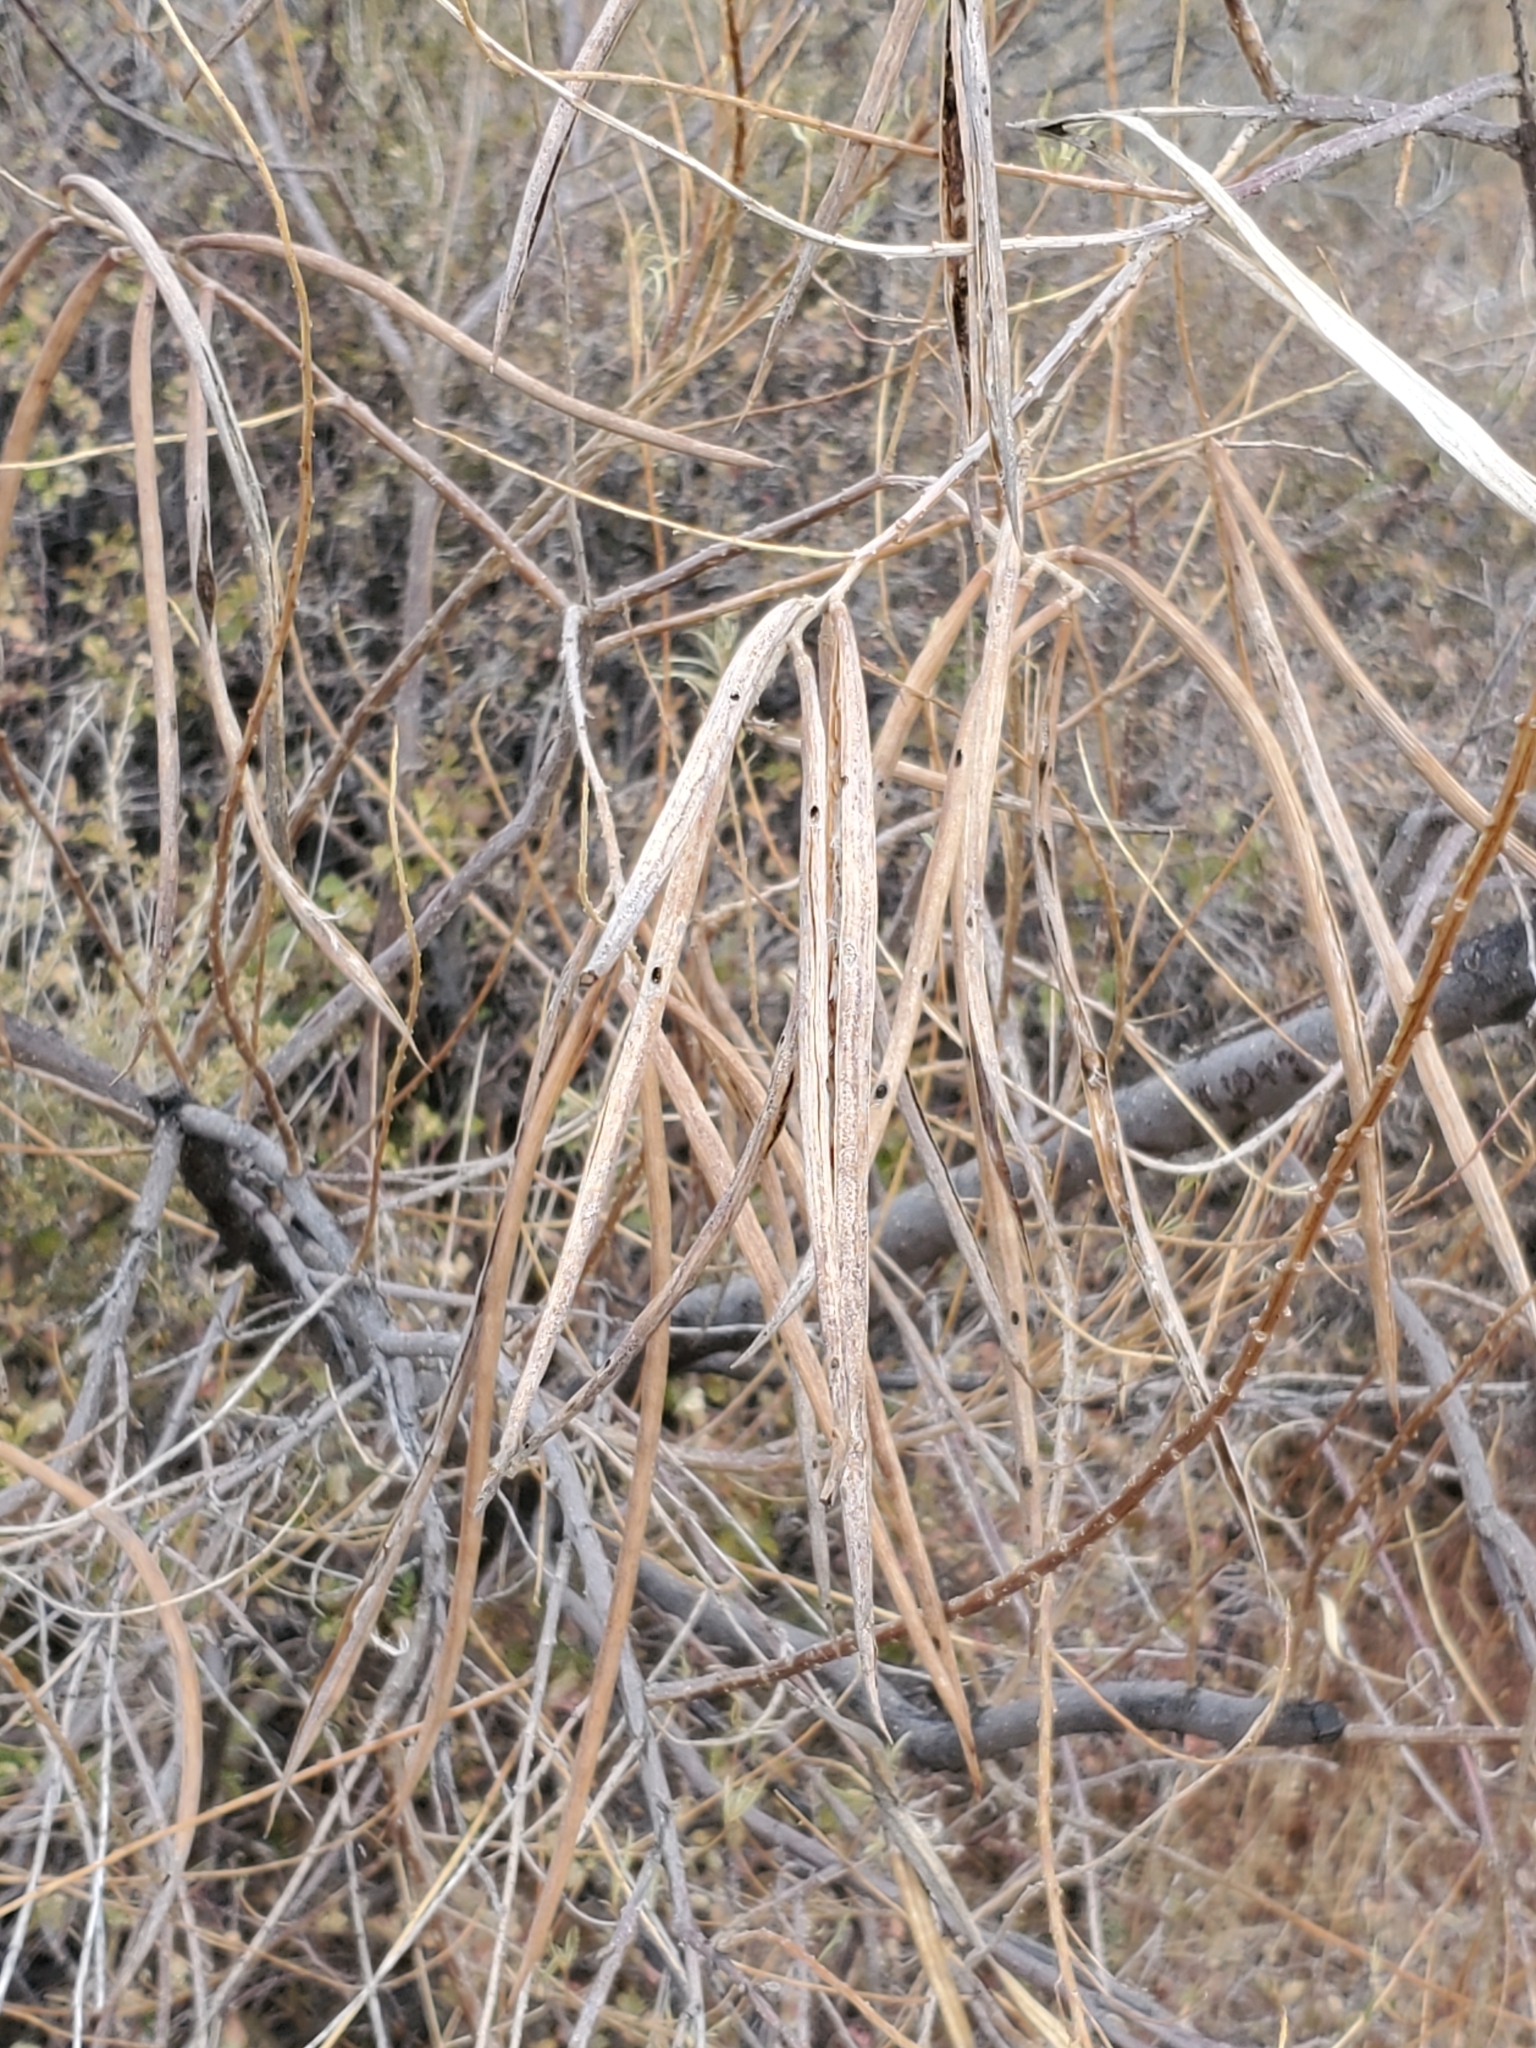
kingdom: Plantae
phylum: Tracheophyta
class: Magnoliopsida
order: Lamiales
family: Bignoniaceae
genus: Chilopsis
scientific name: Chilopsis linearis
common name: Desert-willow
